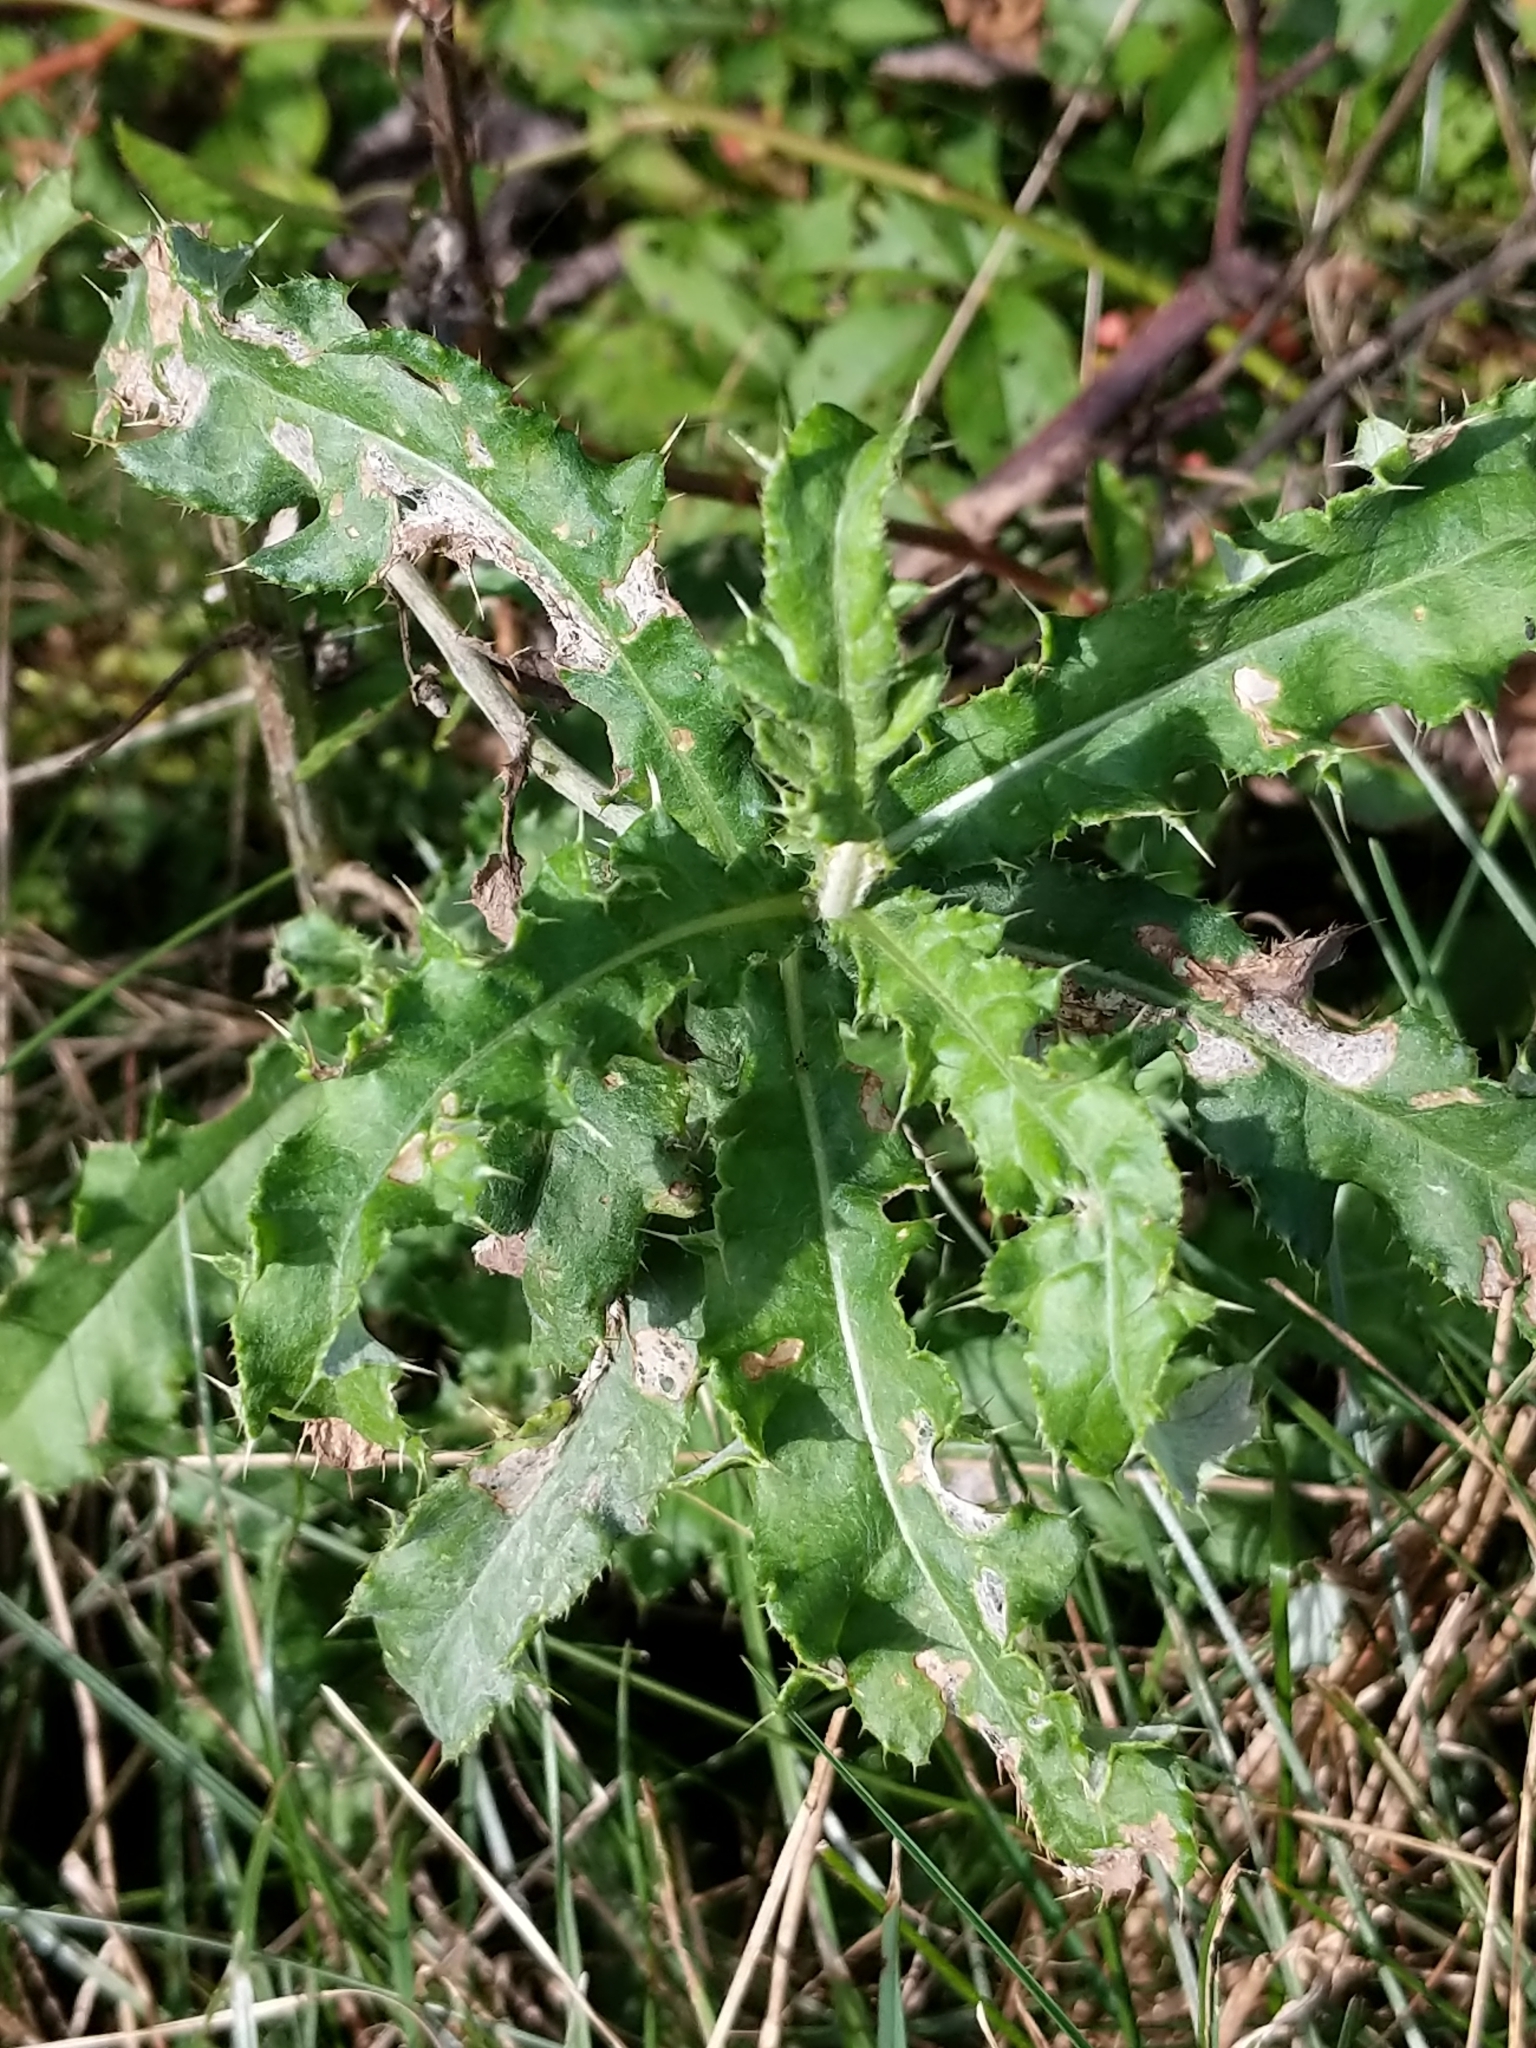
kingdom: Plantae
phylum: Tracheophyta
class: Magnoliopsida
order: Asterales
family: Asteraceae
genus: Cirsium
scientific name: Cirsium arvense
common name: Creeping thistle
